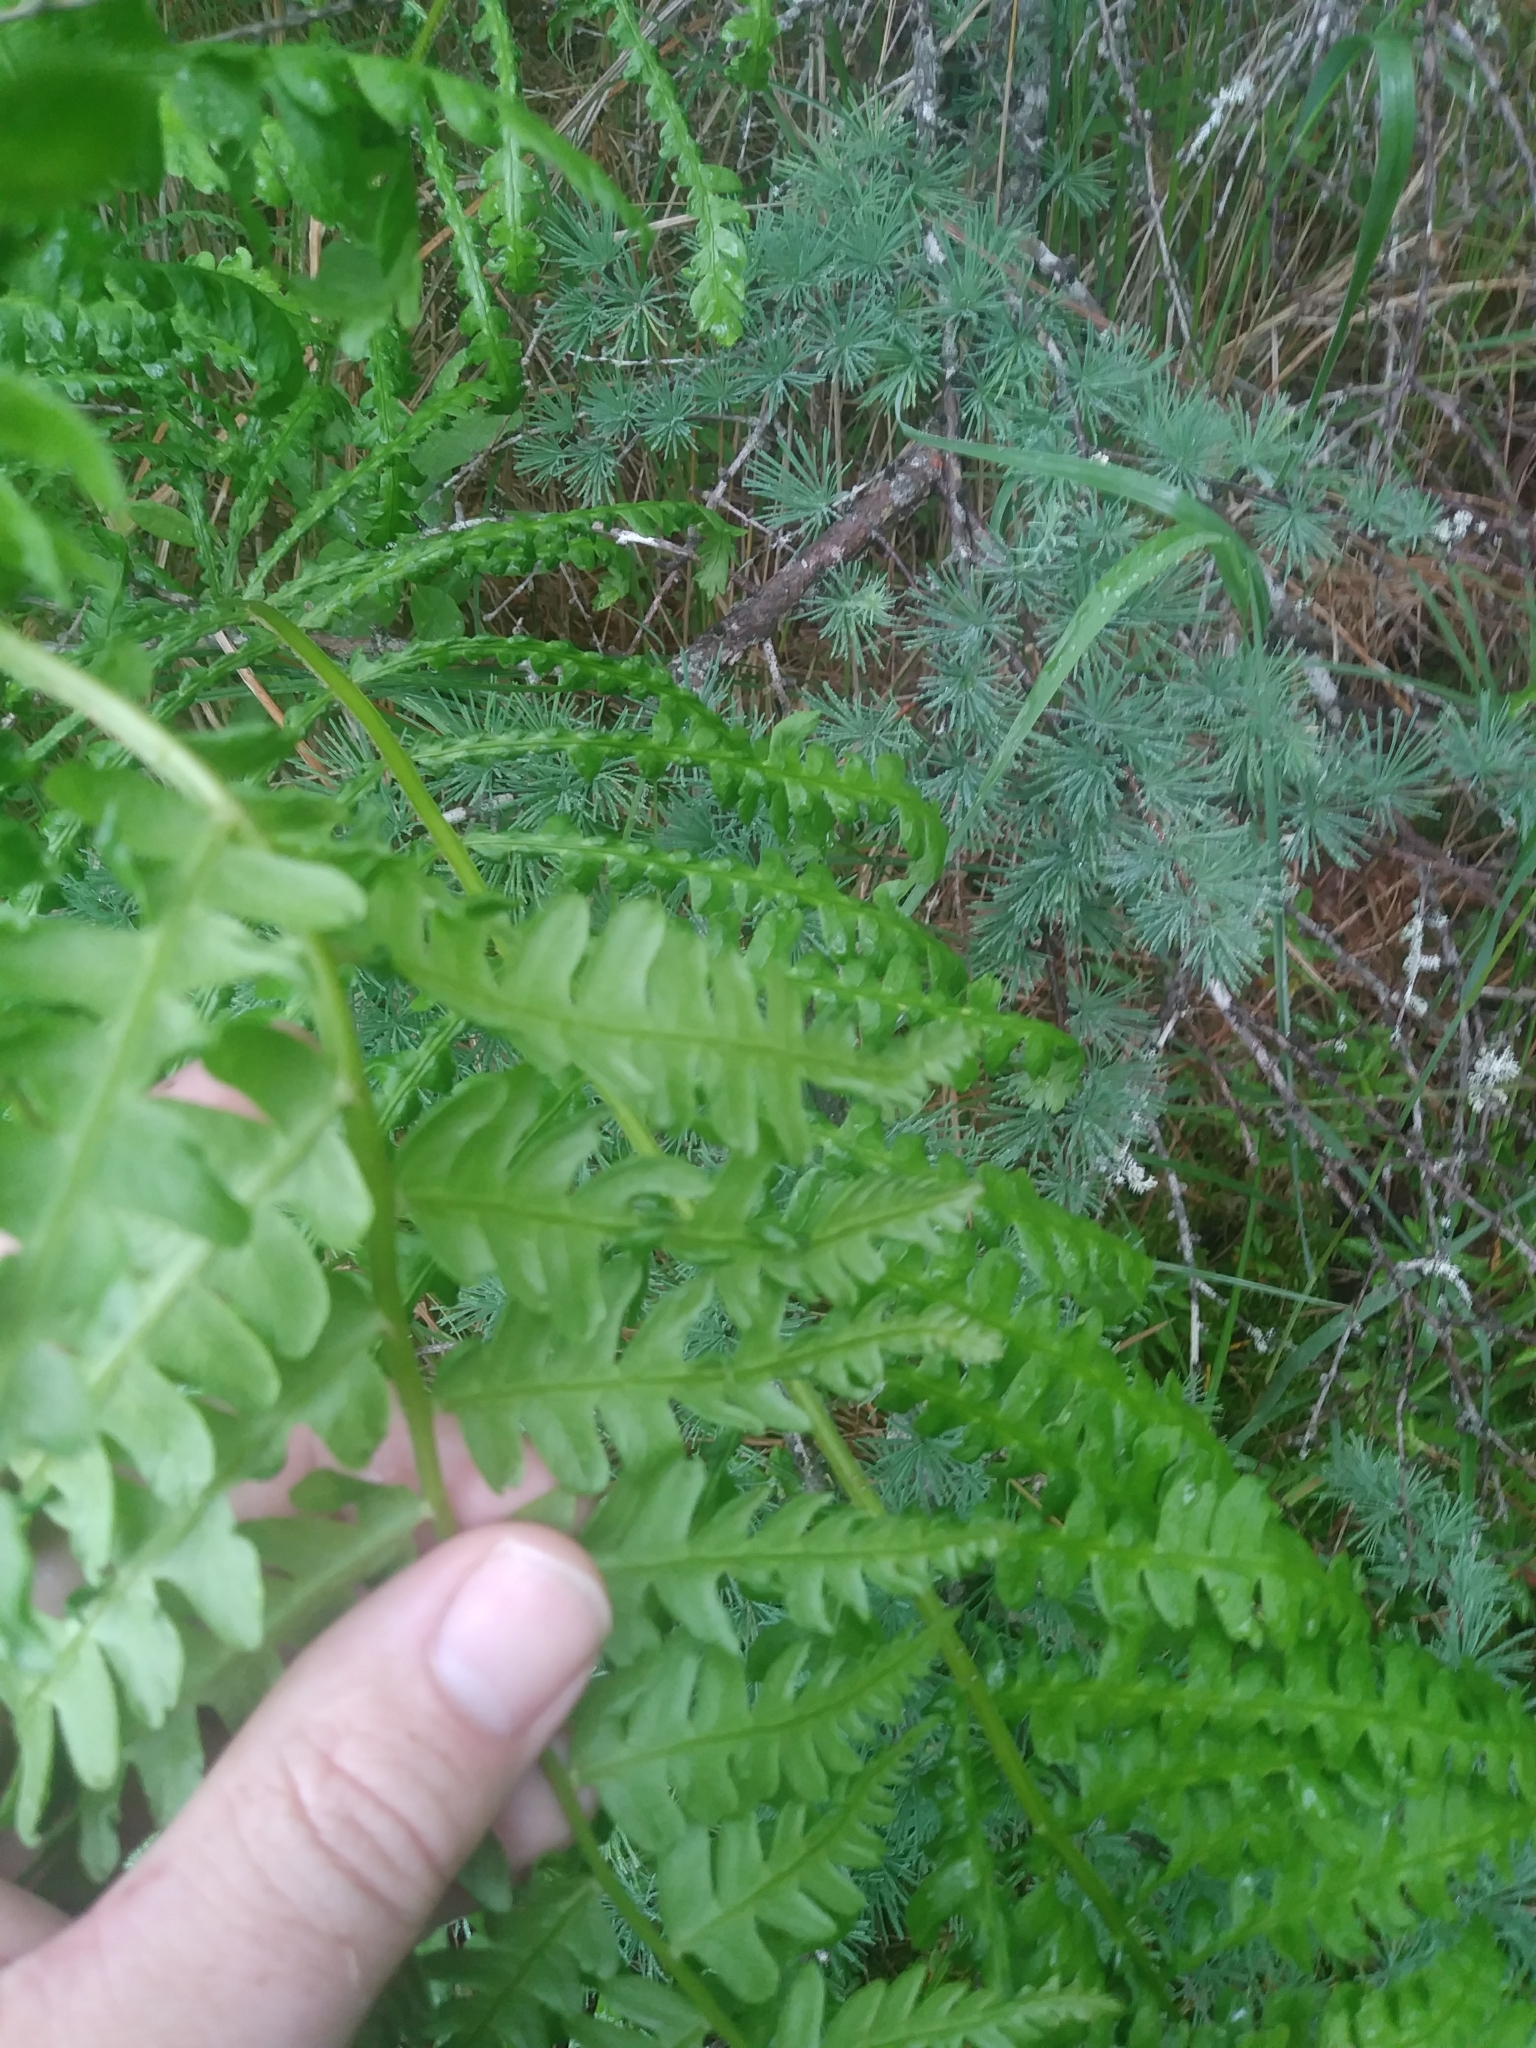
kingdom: Plantae
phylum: Tracheophyta
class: Polypodiopsida
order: Osmundales
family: Osmundaceae
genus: Osmundastrum
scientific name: Osmundastrum cinnamomeum
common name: Cinnamon fern
